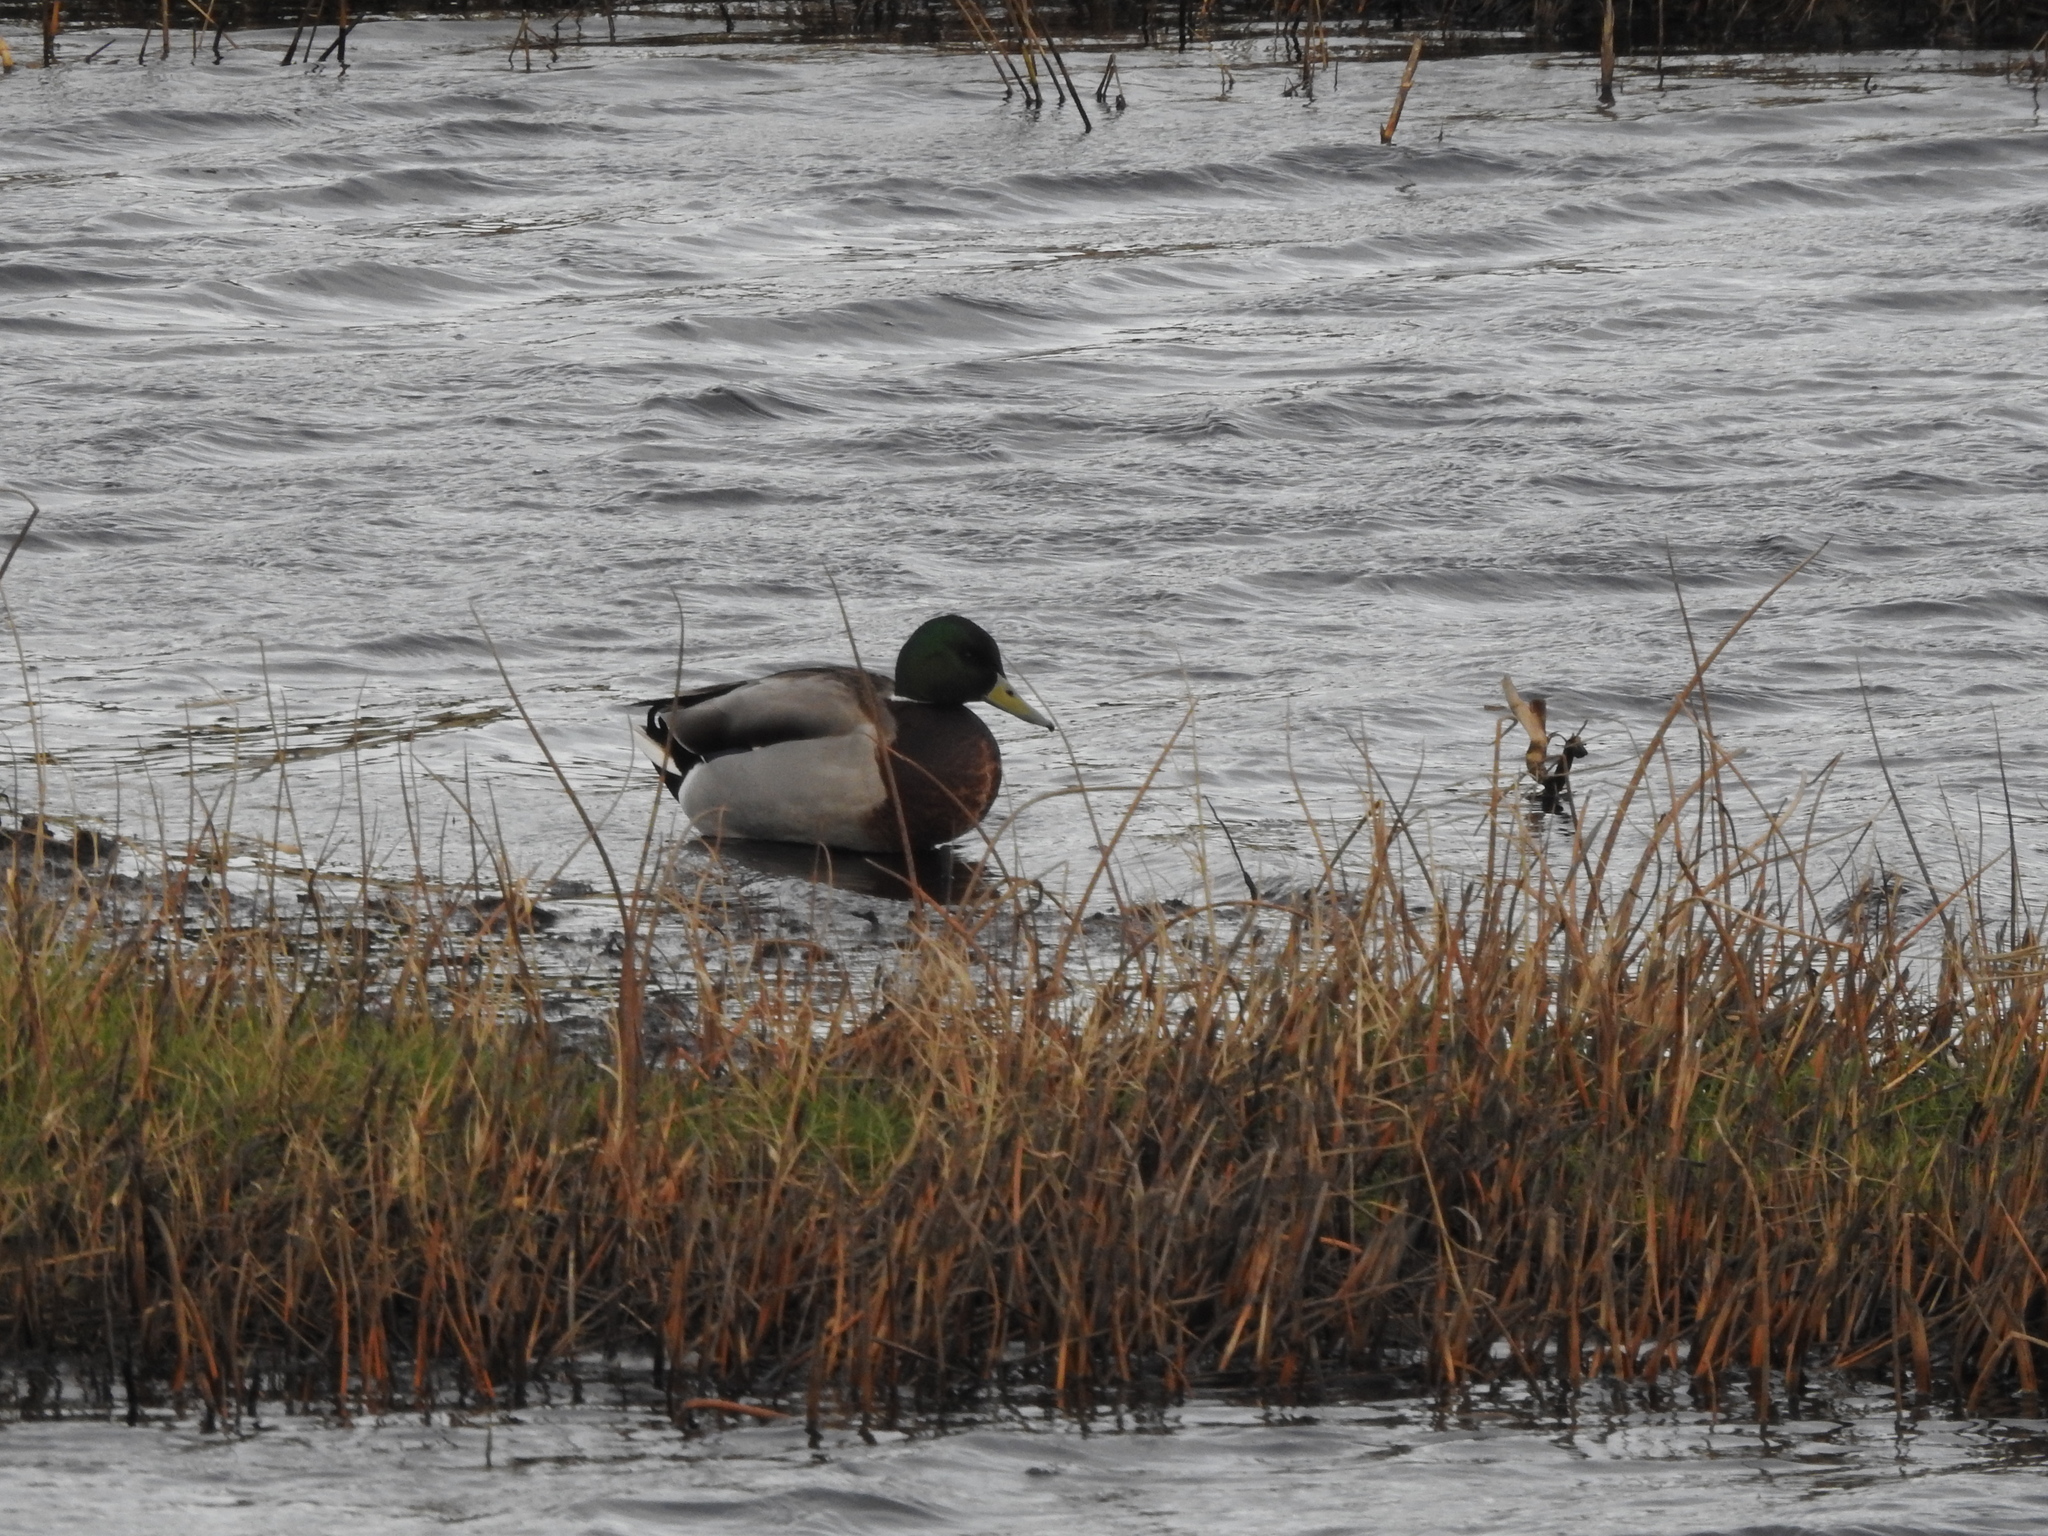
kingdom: Animalia
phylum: Chordata
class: Aves
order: Anseriformes
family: Anatidae
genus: Anas
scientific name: Anas platyrhynchos
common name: Mallard
